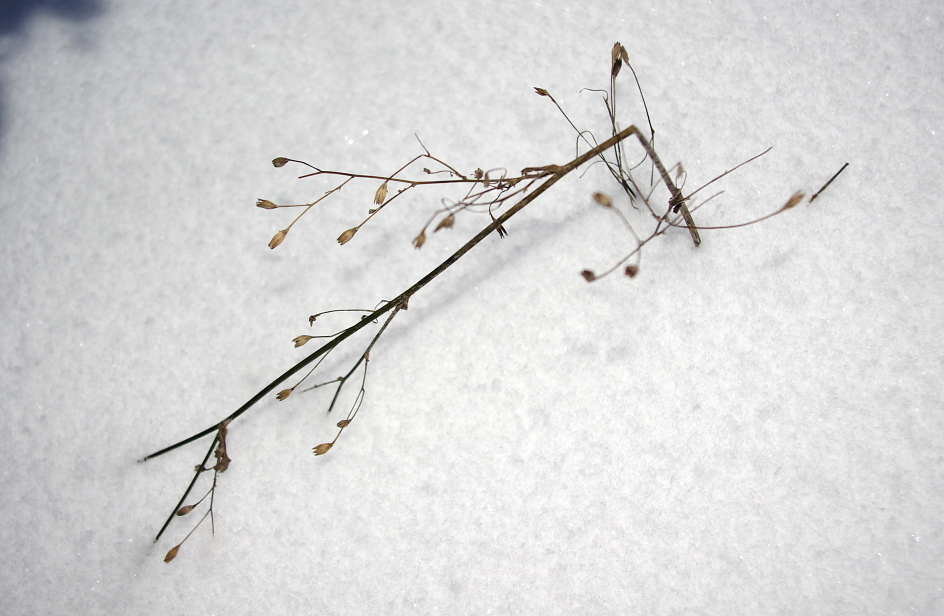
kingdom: Plantae
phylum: Tracheophyta
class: Magnoliopsida
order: Asterales
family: Asteraceae
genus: Lapsana
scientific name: Lapsana communis
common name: Nipplewort
